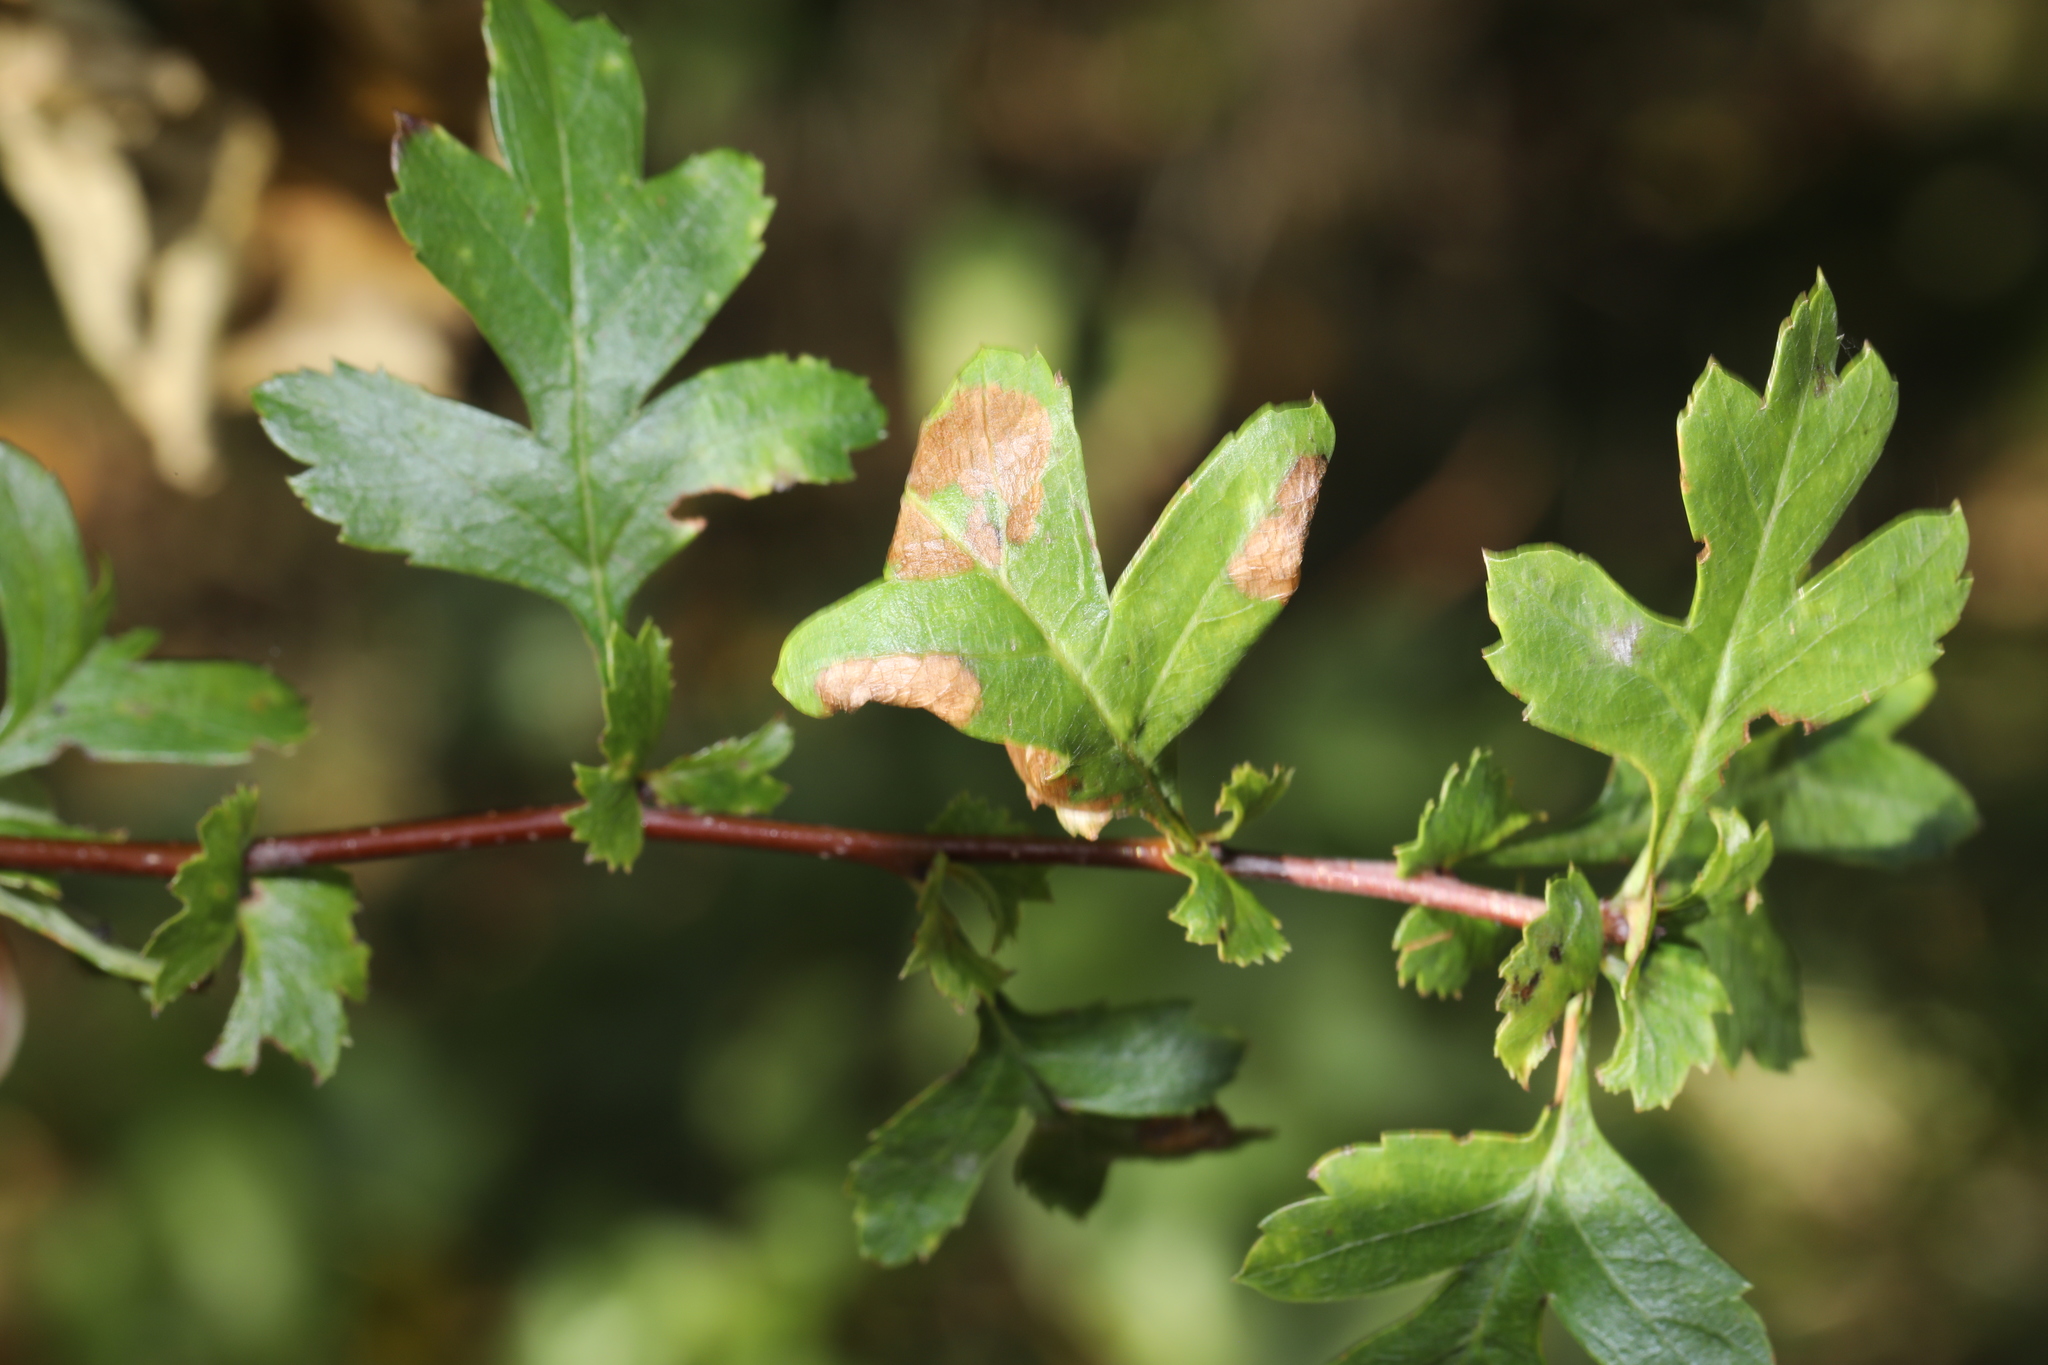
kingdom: Animalia
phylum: Arthropoda
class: Insecta
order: Lepidoptera
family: Gracillariidae
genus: Parornix
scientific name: Parornix anglicella
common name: Hawthorn slender
